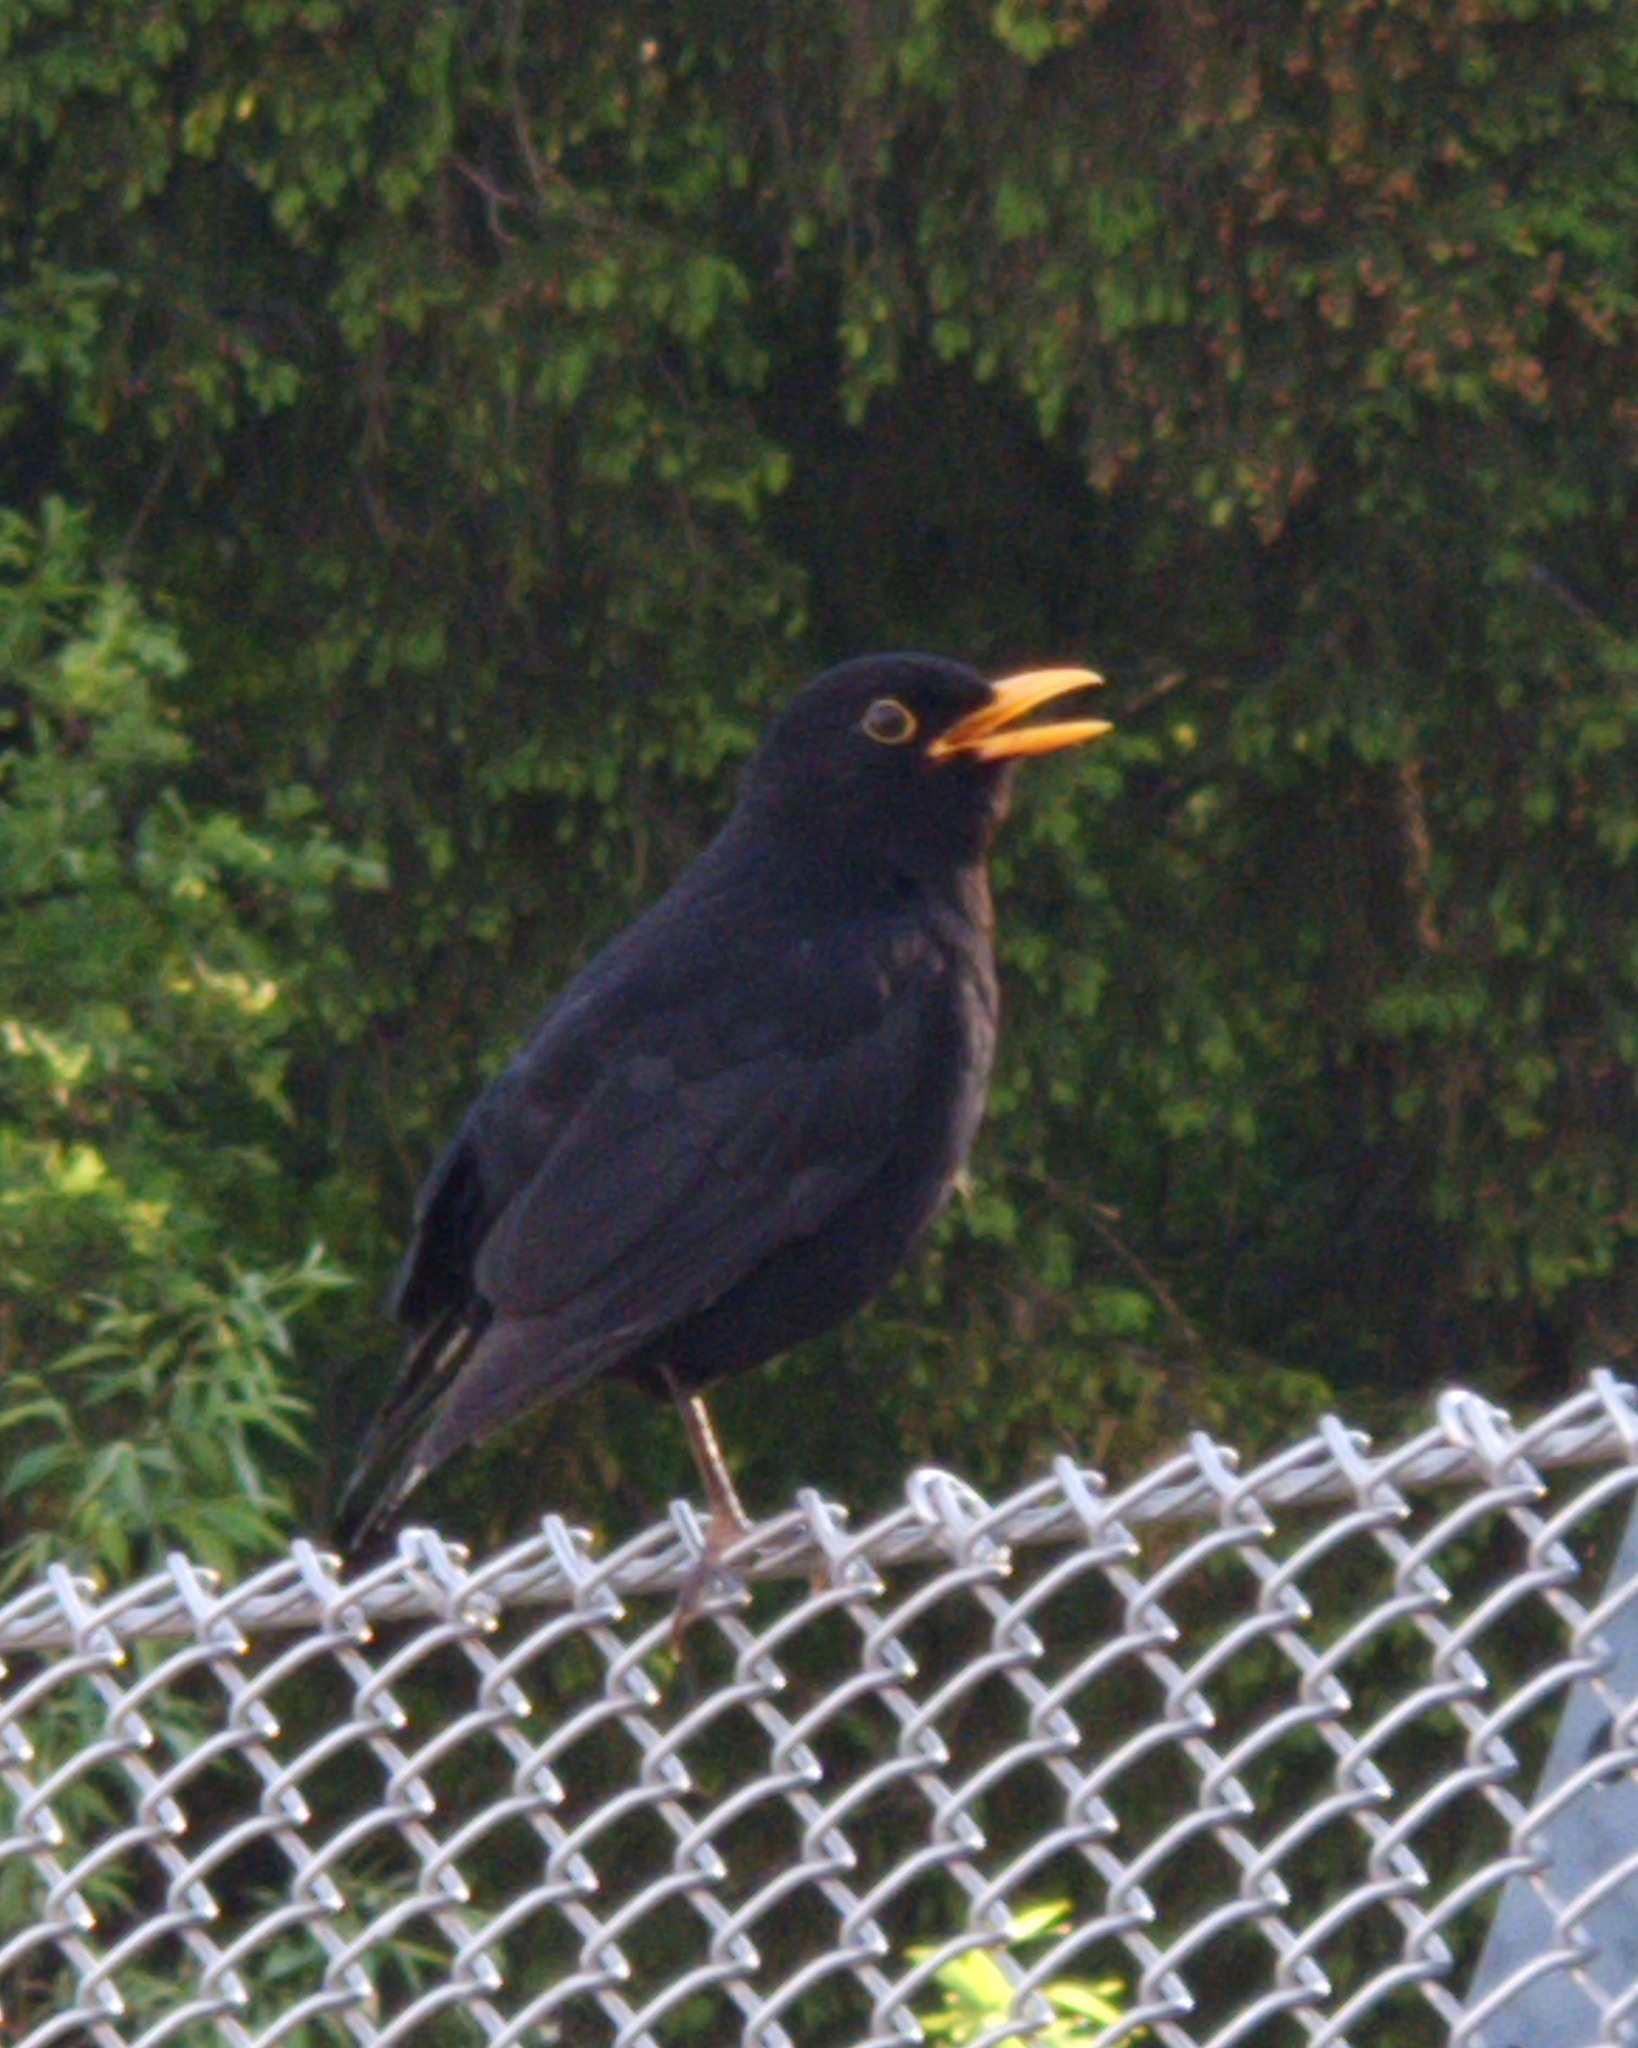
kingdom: Animalia
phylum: Chordata
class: Aves
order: Passeriformes
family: Turdidae
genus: Turdus
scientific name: Turdus merula
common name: Common blackbird
